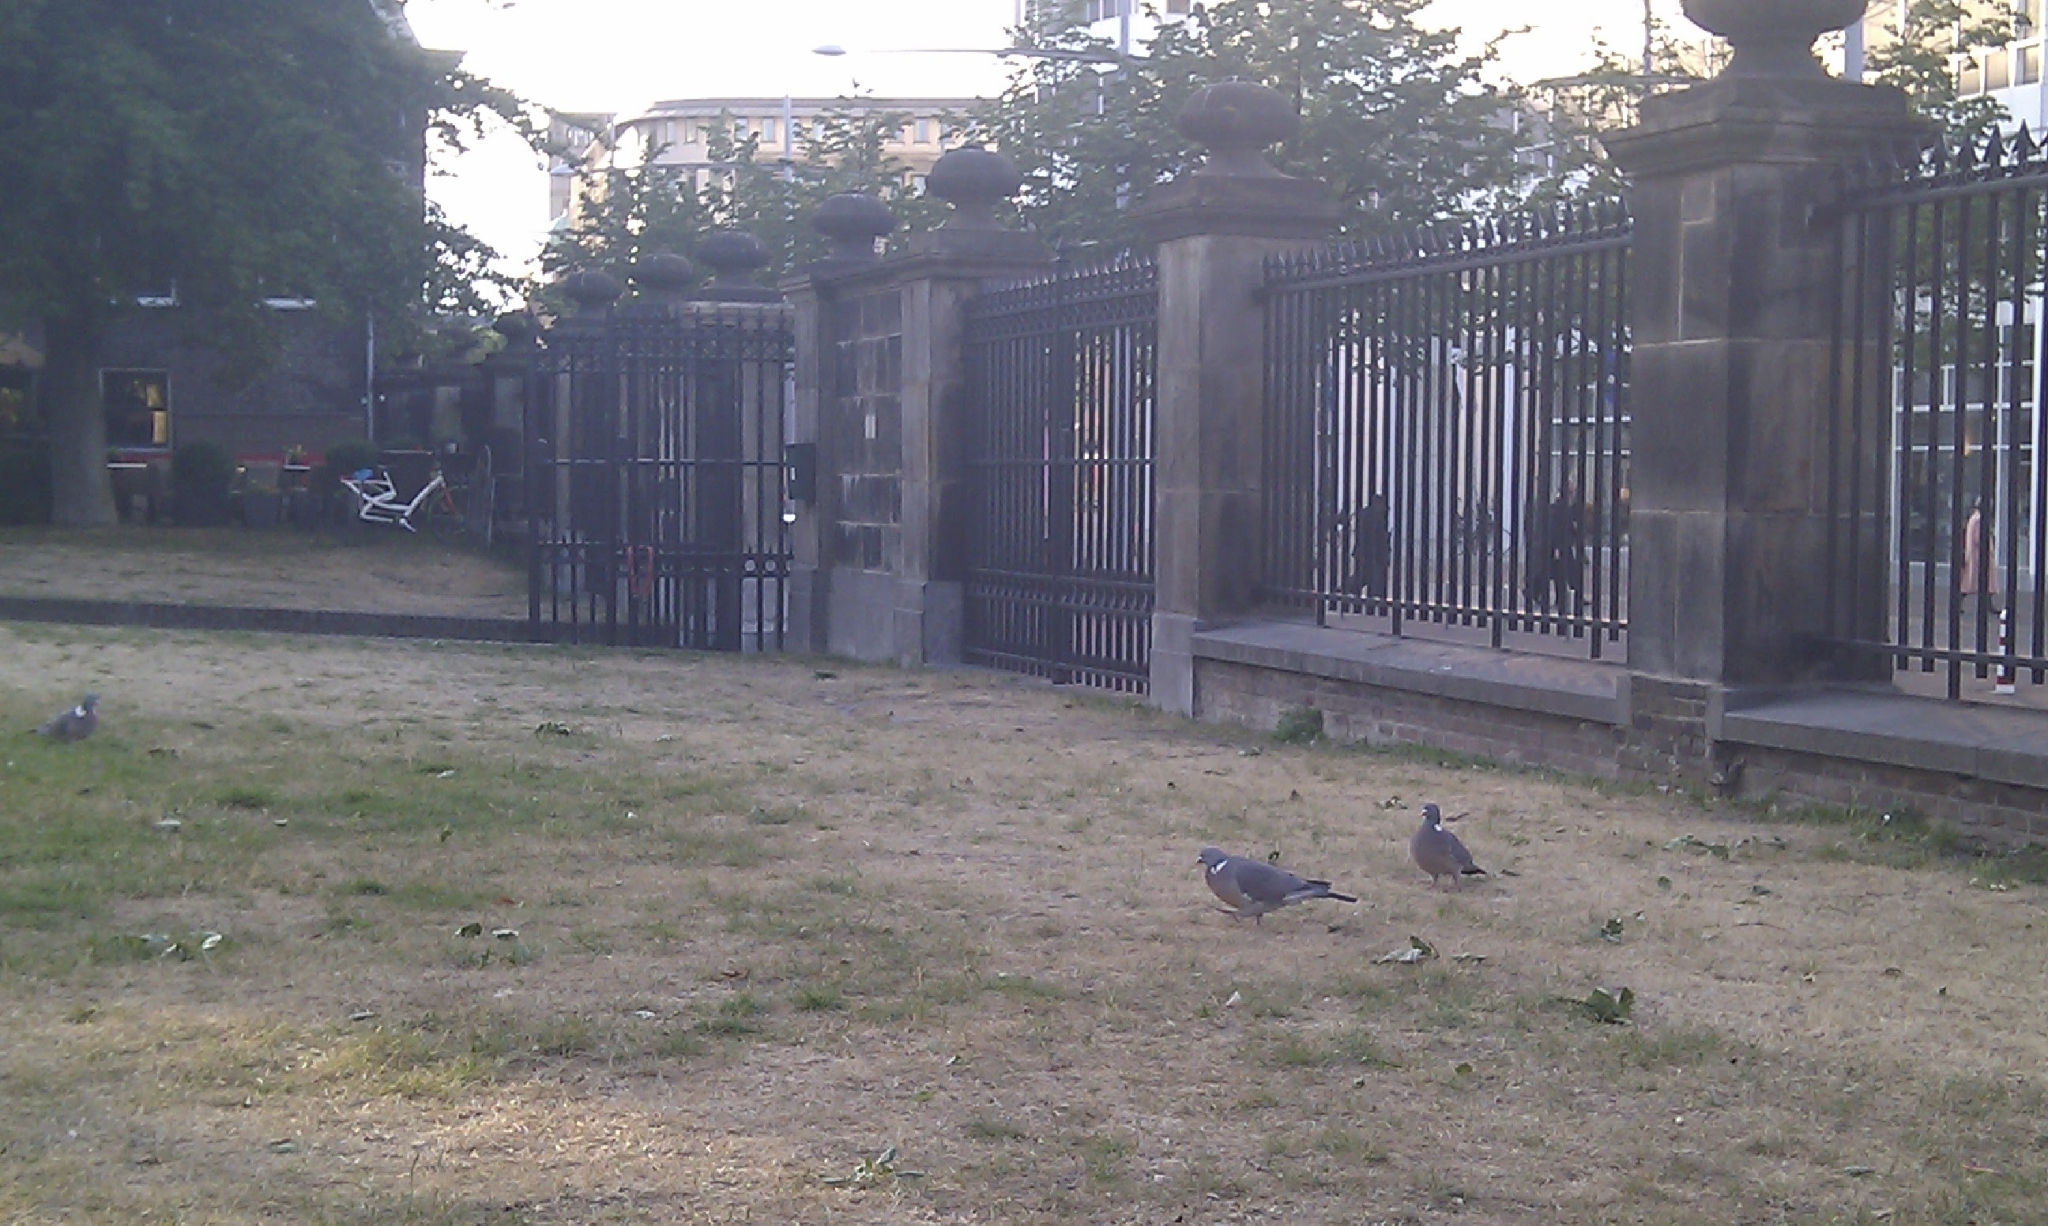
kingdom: Animalia
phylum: Chordata
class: Aves
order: Columbiformes
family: Columbidae
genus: Columba
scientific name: Columba palumbus
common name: Common wood pigeon
